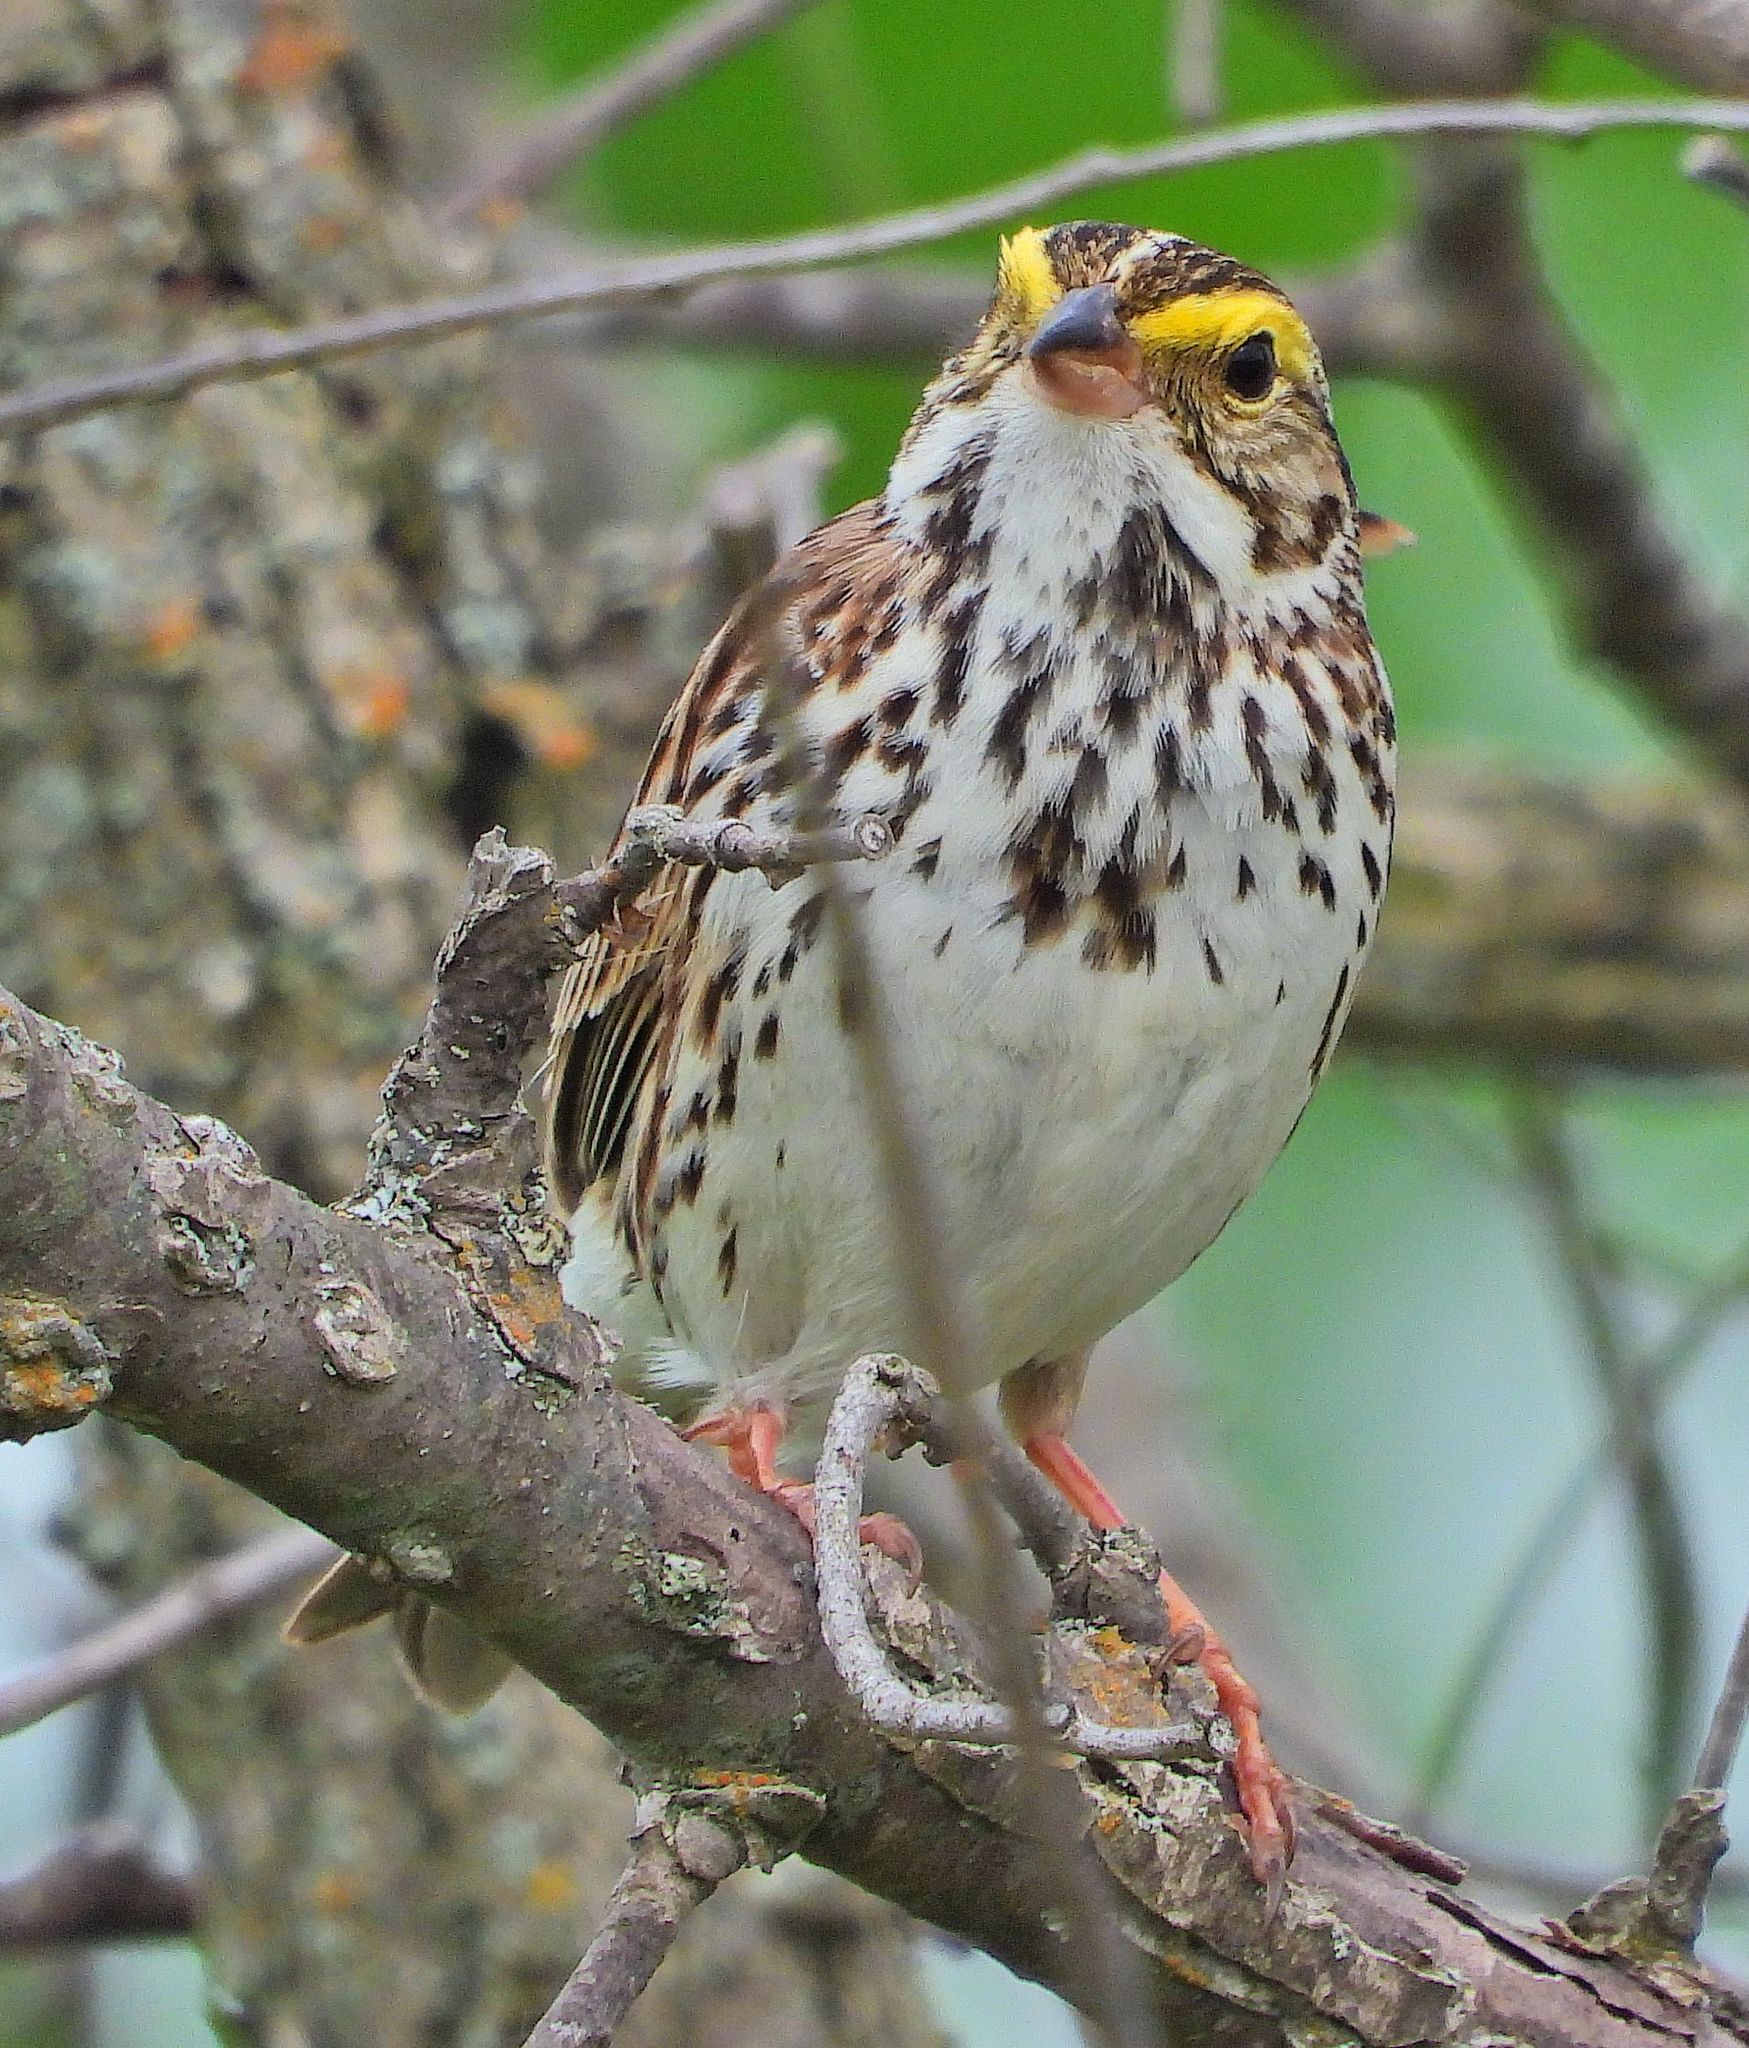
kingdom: Animalia
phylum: Chordata
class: Aves
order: Passeriformes
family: Passerellidae
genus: Passerculus
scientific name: Passerculus sandwichensis
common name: Savannah sparrow
